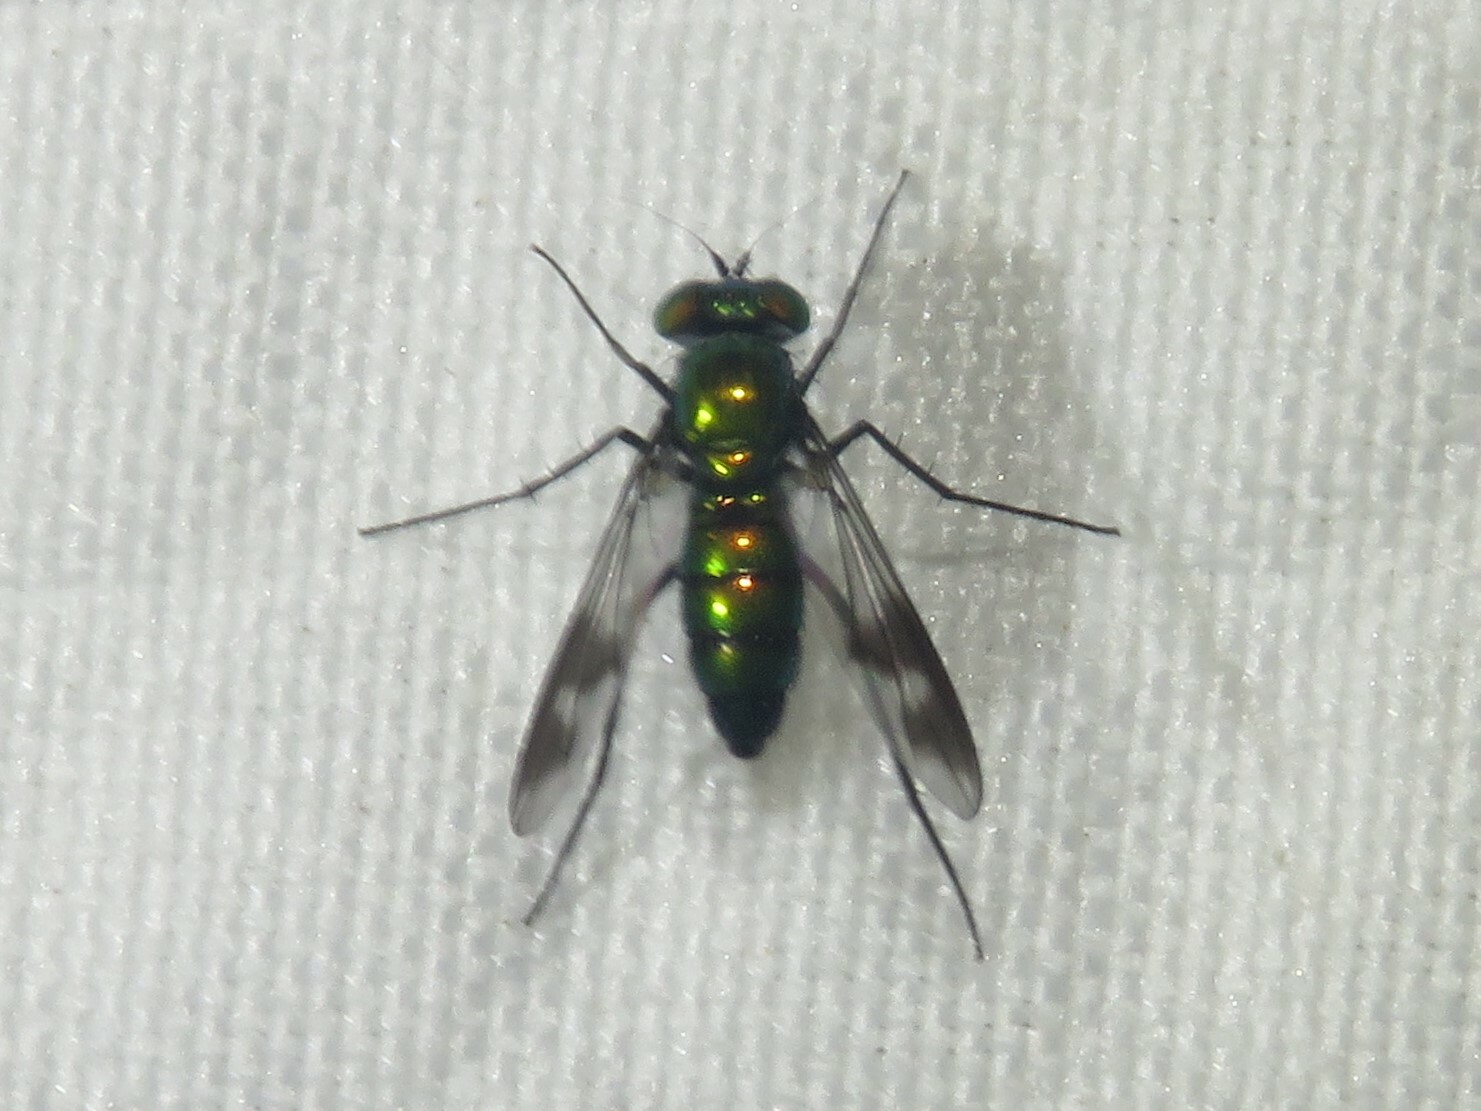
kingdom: Animalia
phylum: Arthropoda
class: Insecta
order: Diptera
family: Dolichopodidae
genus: Condylostylus
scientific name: Condylostylus patibulatus
